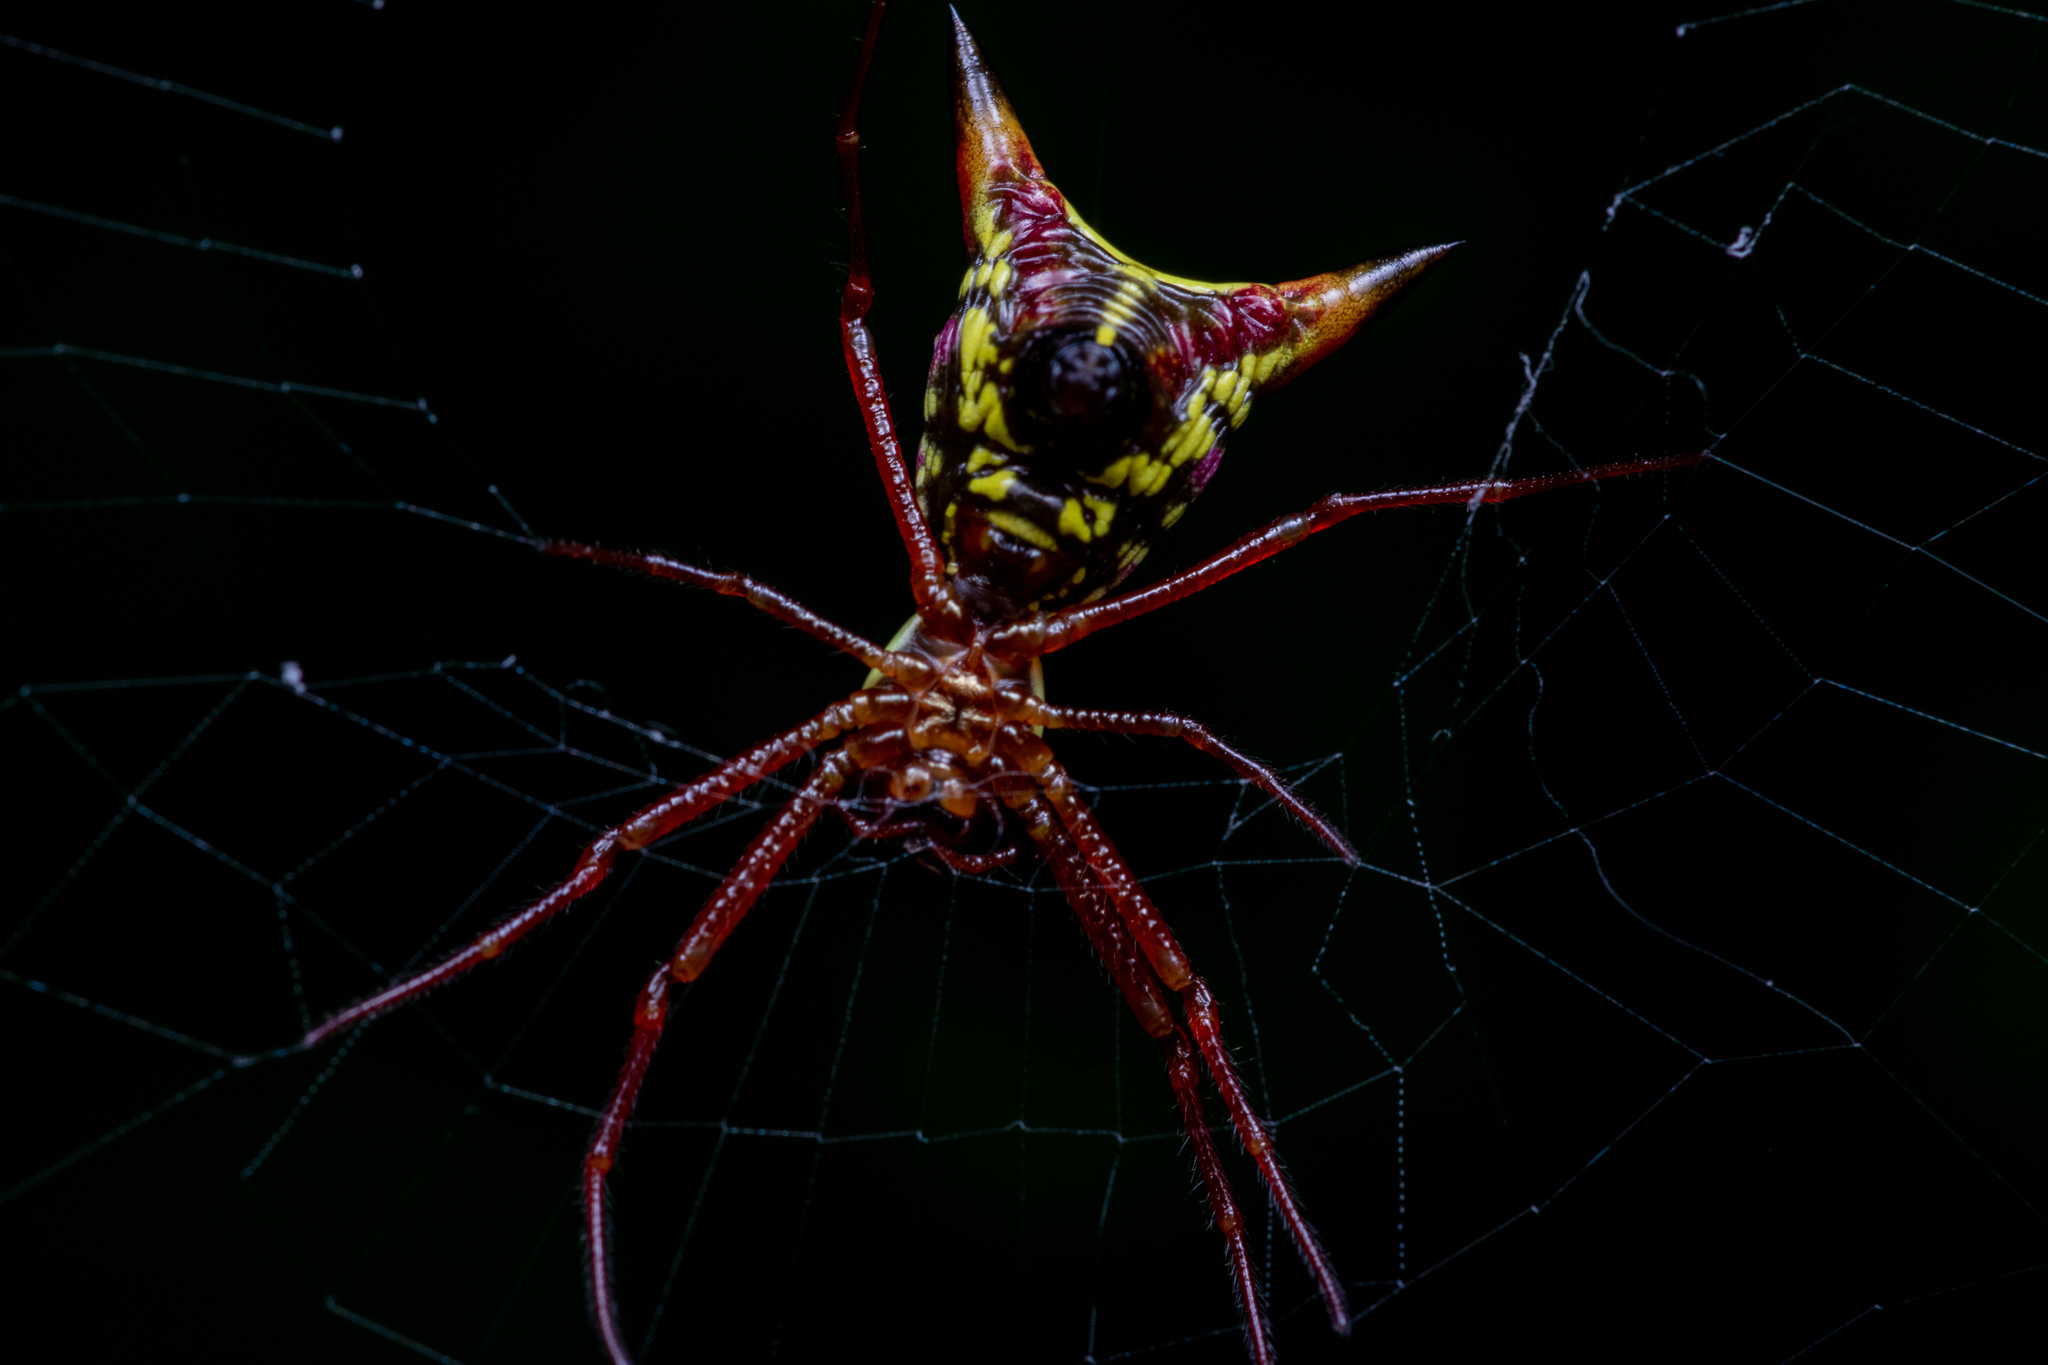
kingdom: Animalia
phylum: Arthropoda
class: Arachnida
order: Araneae
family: Araneidae
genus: Micrathena
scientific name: Micrathena sagittata
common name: Orb weavers
